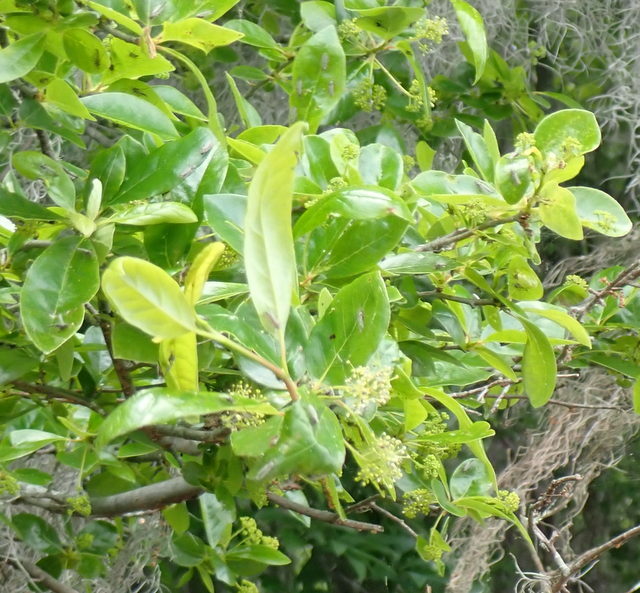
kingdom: Plantae
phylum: Tracheophyta
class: Magnoliopsida
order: Cornales
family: Nyssaceae
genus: Nyssa
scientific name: Nyssa biflora
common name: Swamp blackgum
